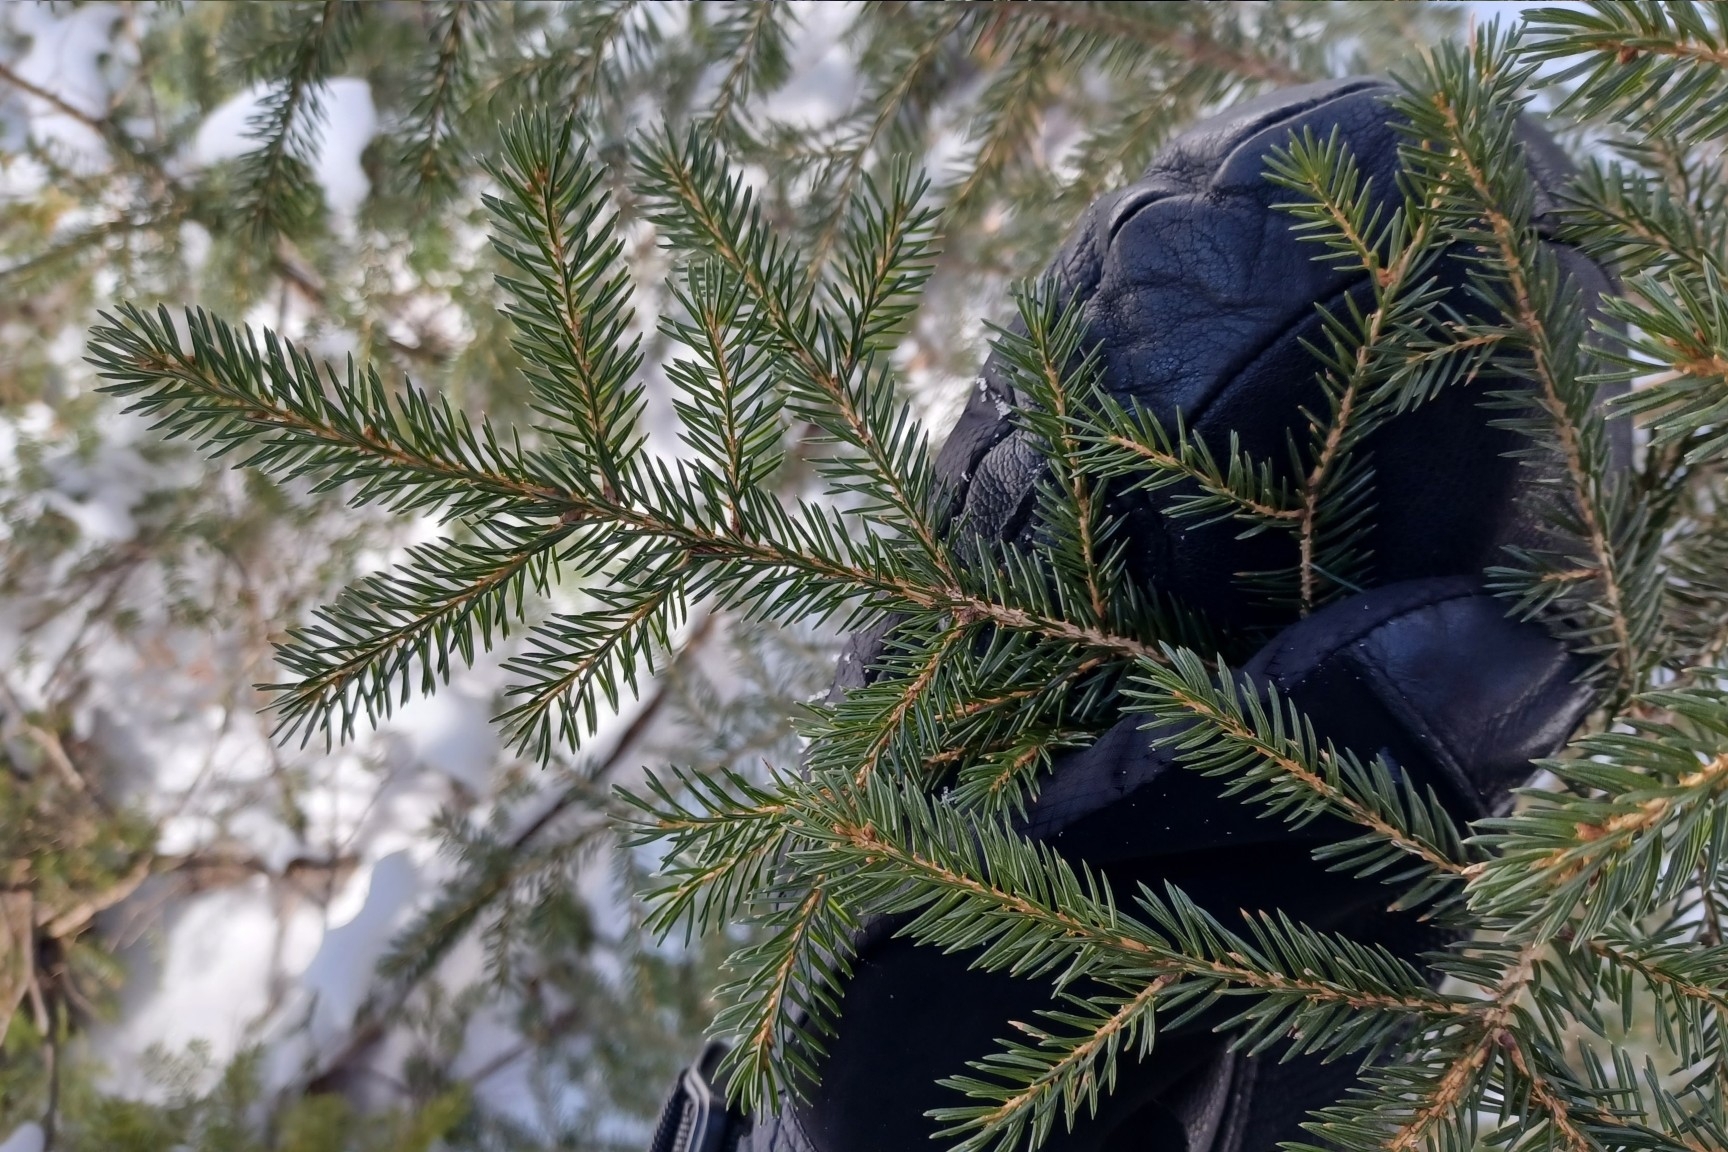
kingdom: Plantae
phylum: Tracheophyta
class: Pinopsida
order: Pinales
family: Pinaceae
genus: Picea
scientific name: Picea rubens
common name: Red spruce
